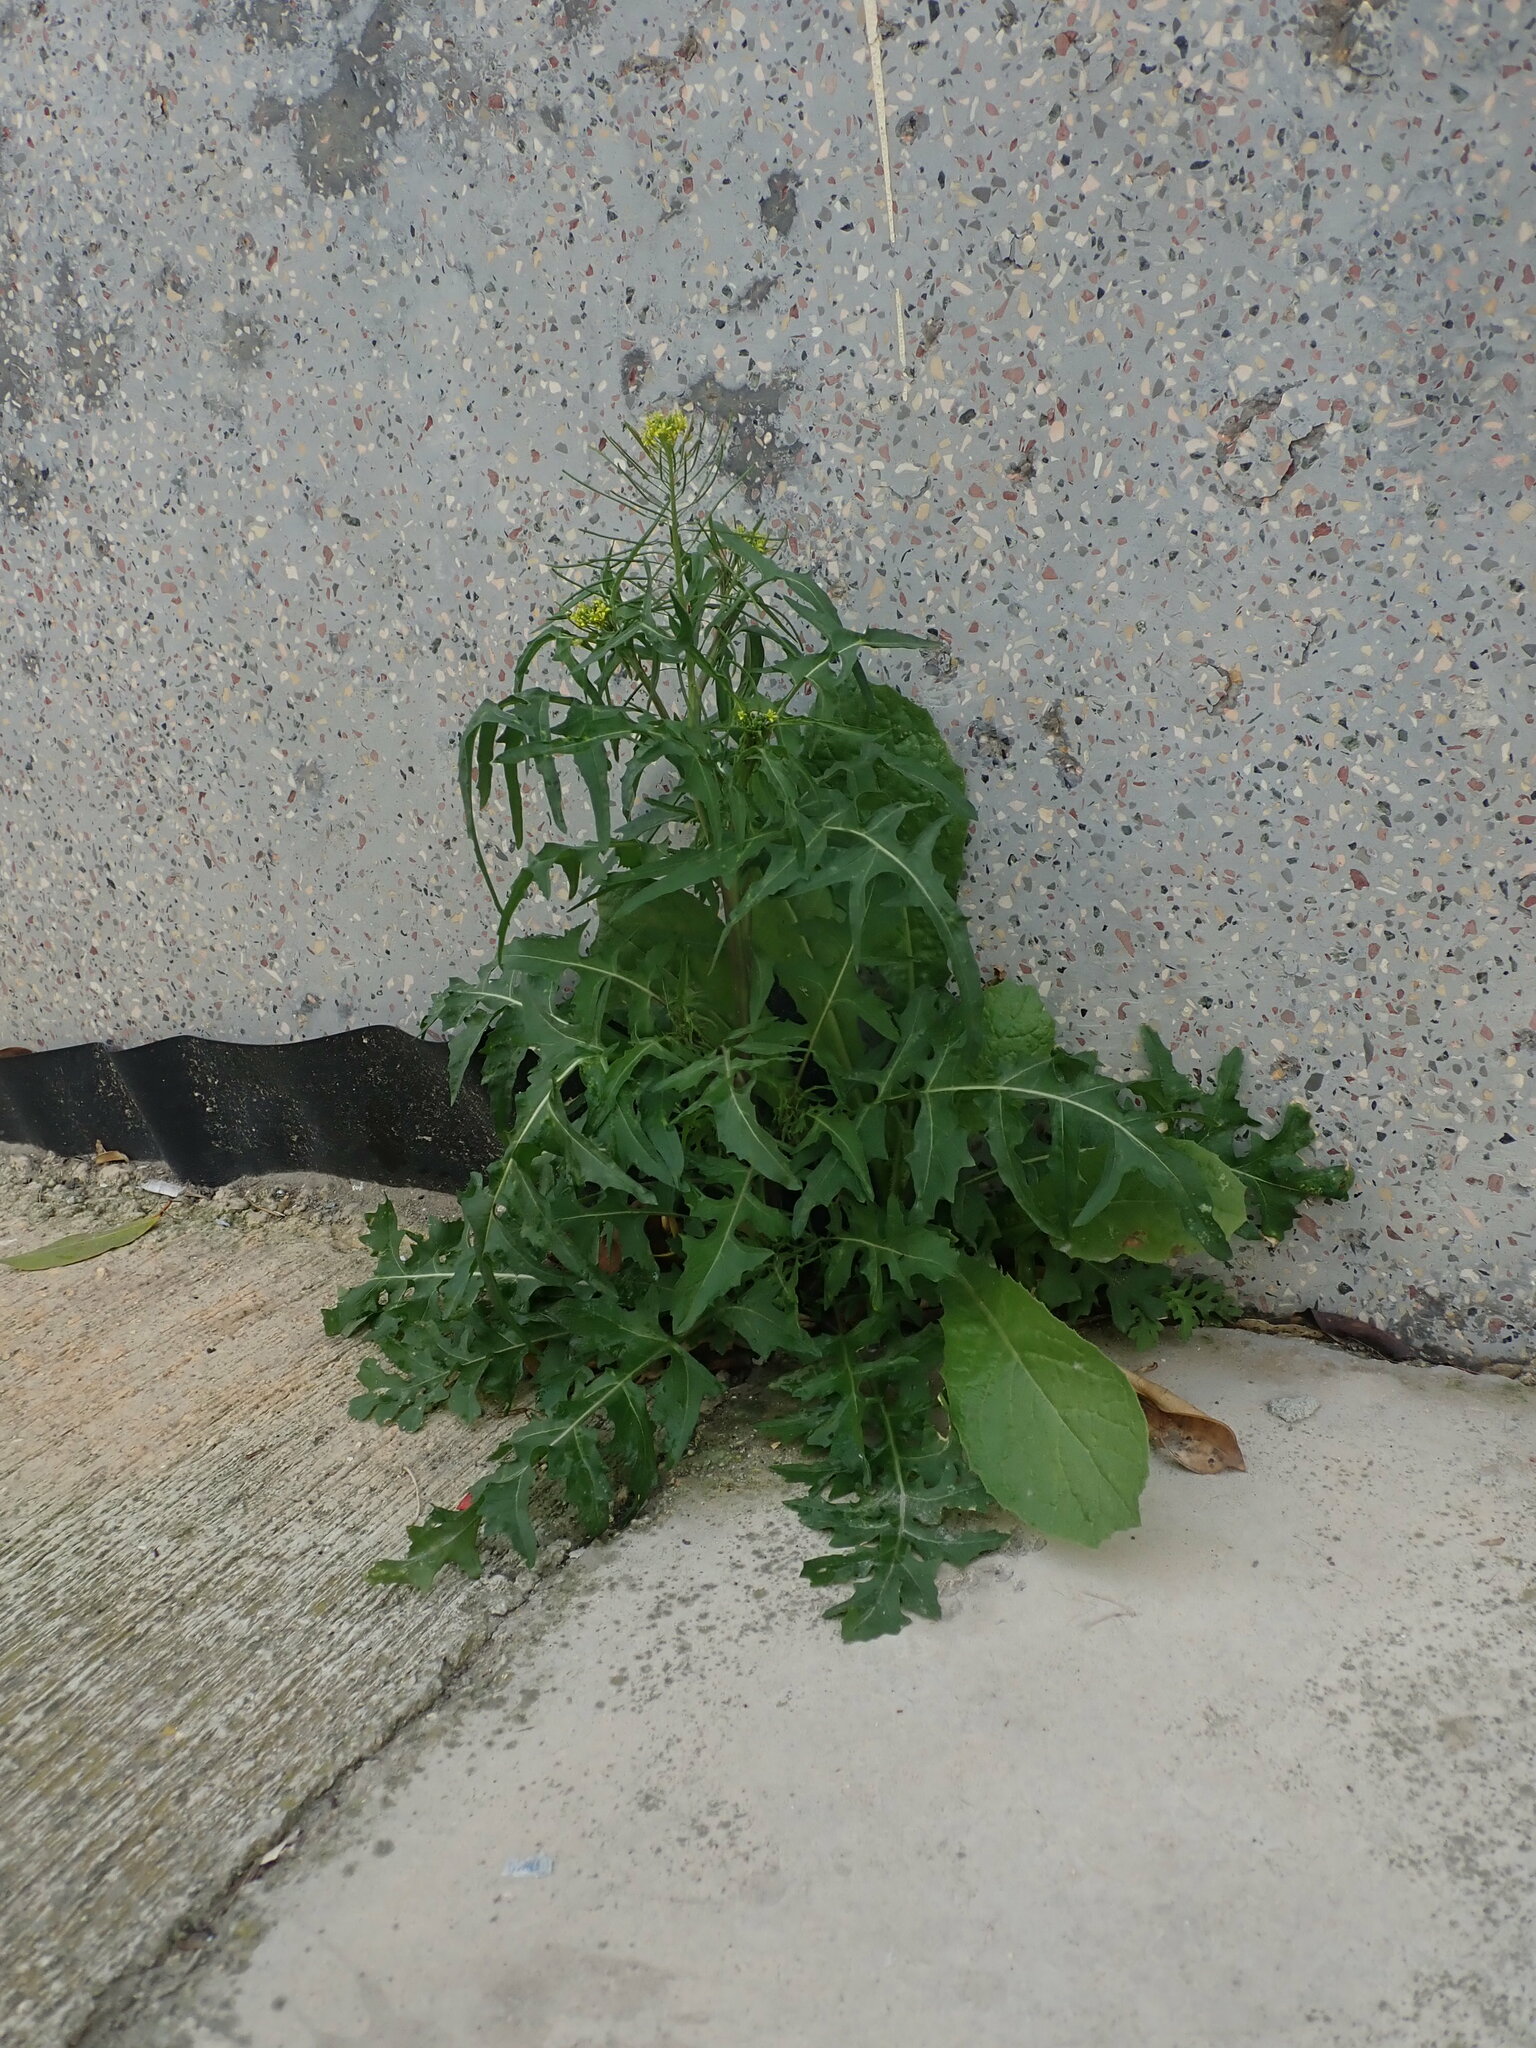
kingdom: Plantae
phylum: Tracheophyta
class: Magnoliopsida
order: Brassicales
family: Brassicaceae
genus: Sisymbrium
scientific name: Sisymbrium irio
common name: London rocket
